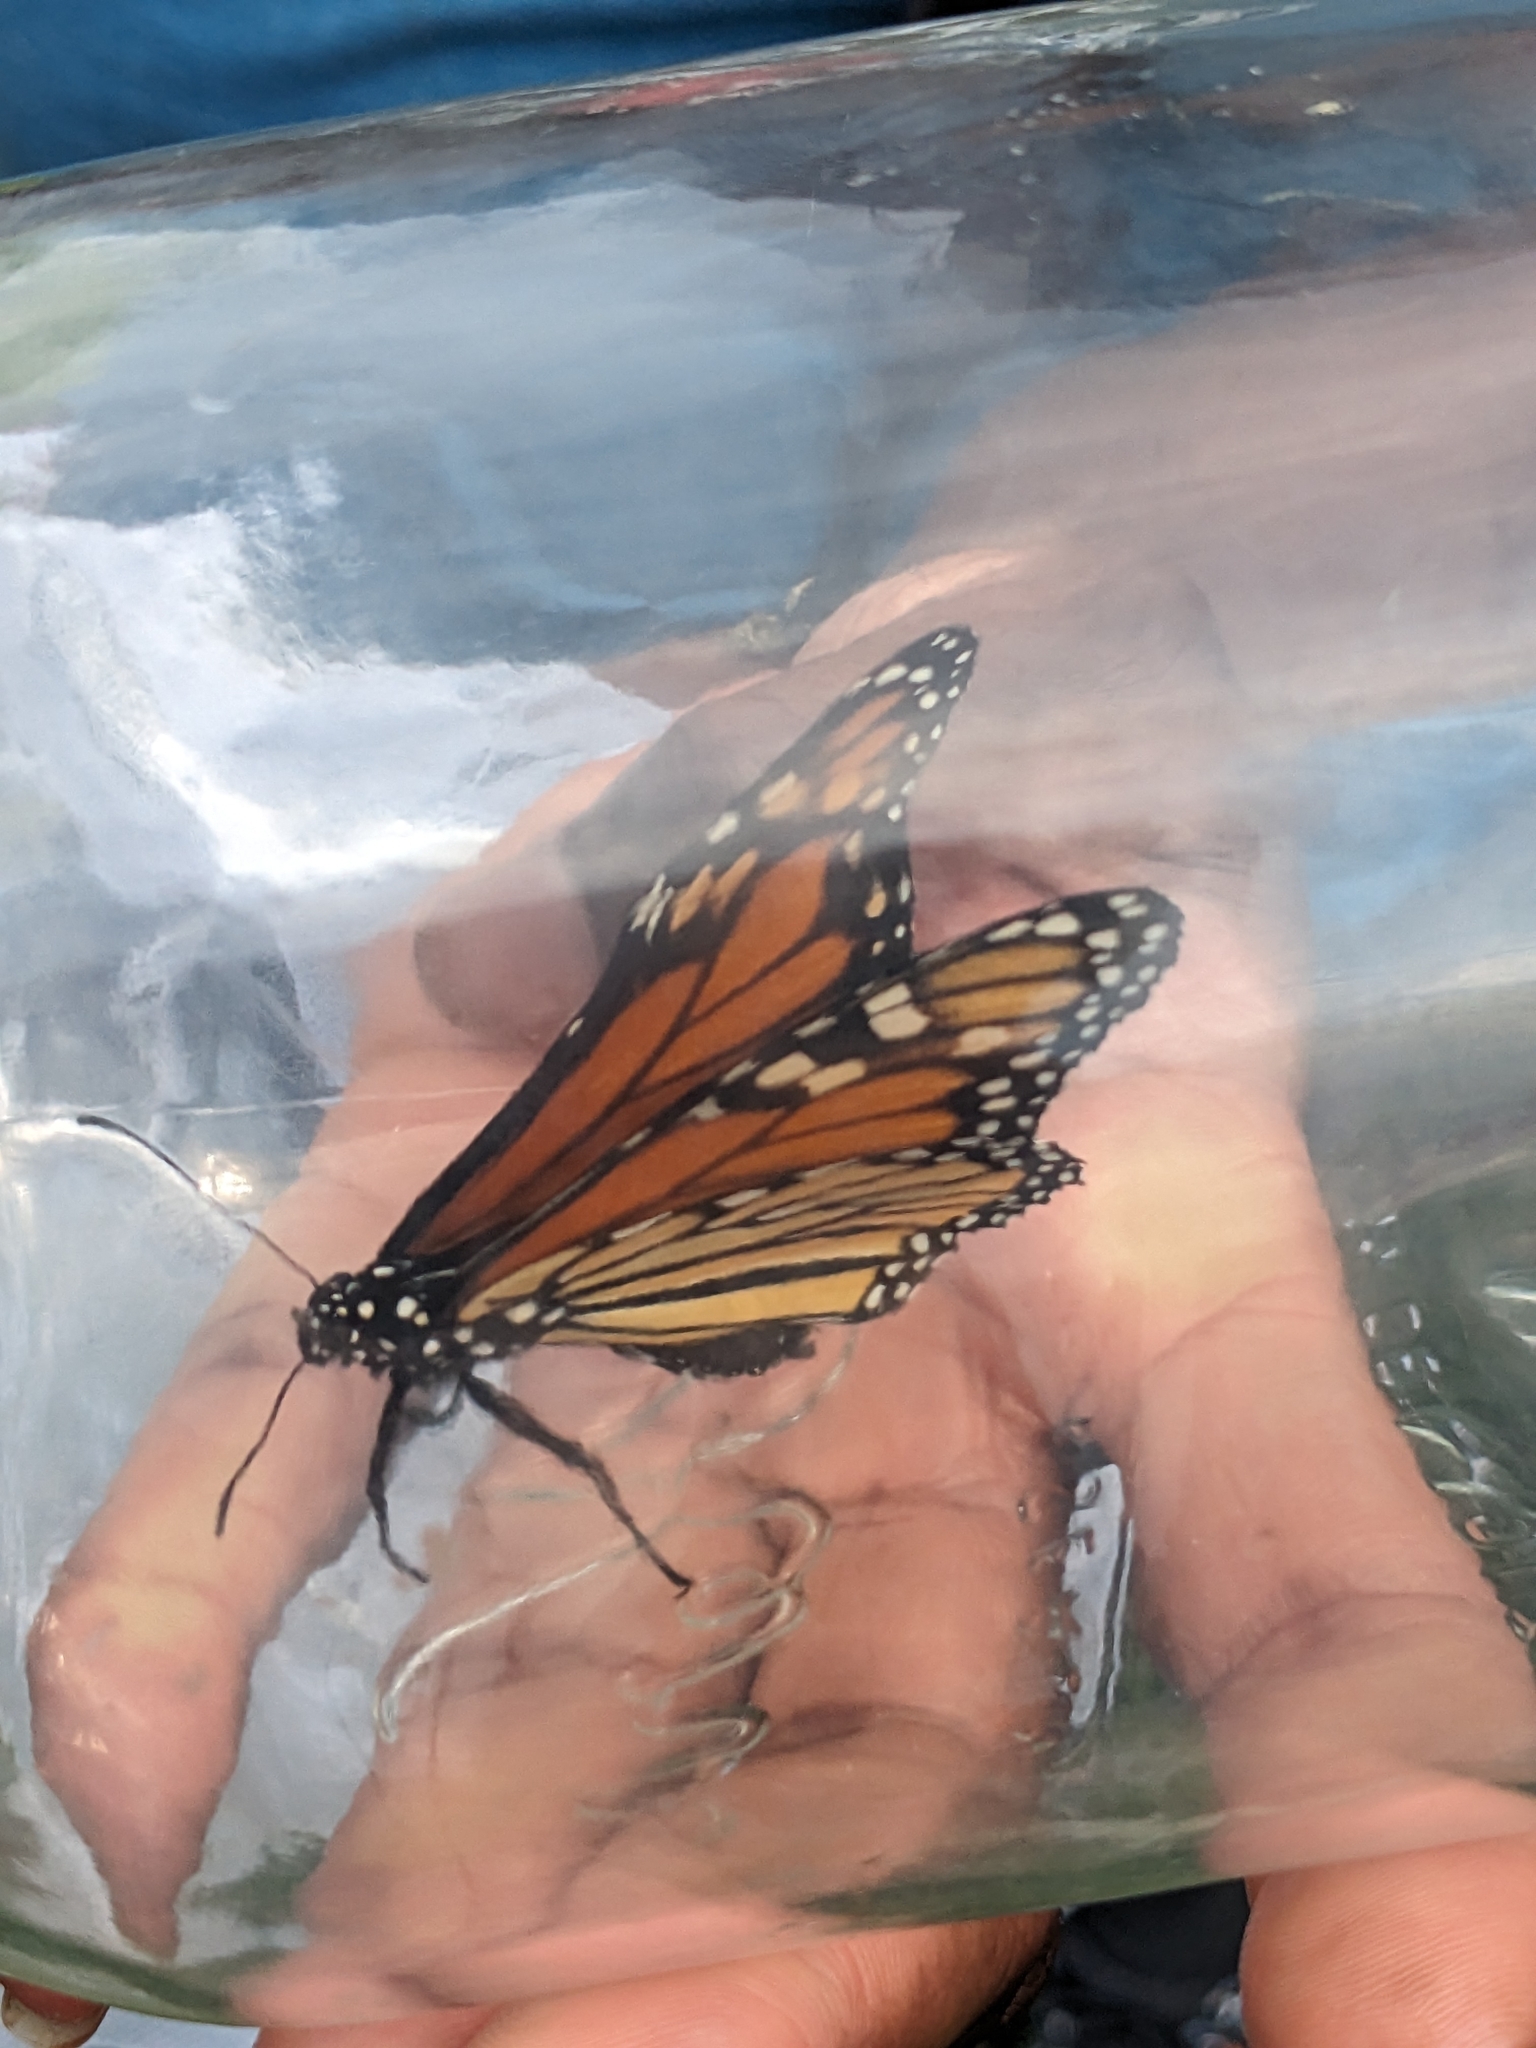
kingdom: Animalia
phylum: Arthropoda
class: Insecta
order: Lepidoptera
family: Nymphalidae
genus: Danaus
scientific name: Danaus plexippus
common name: Monarch
